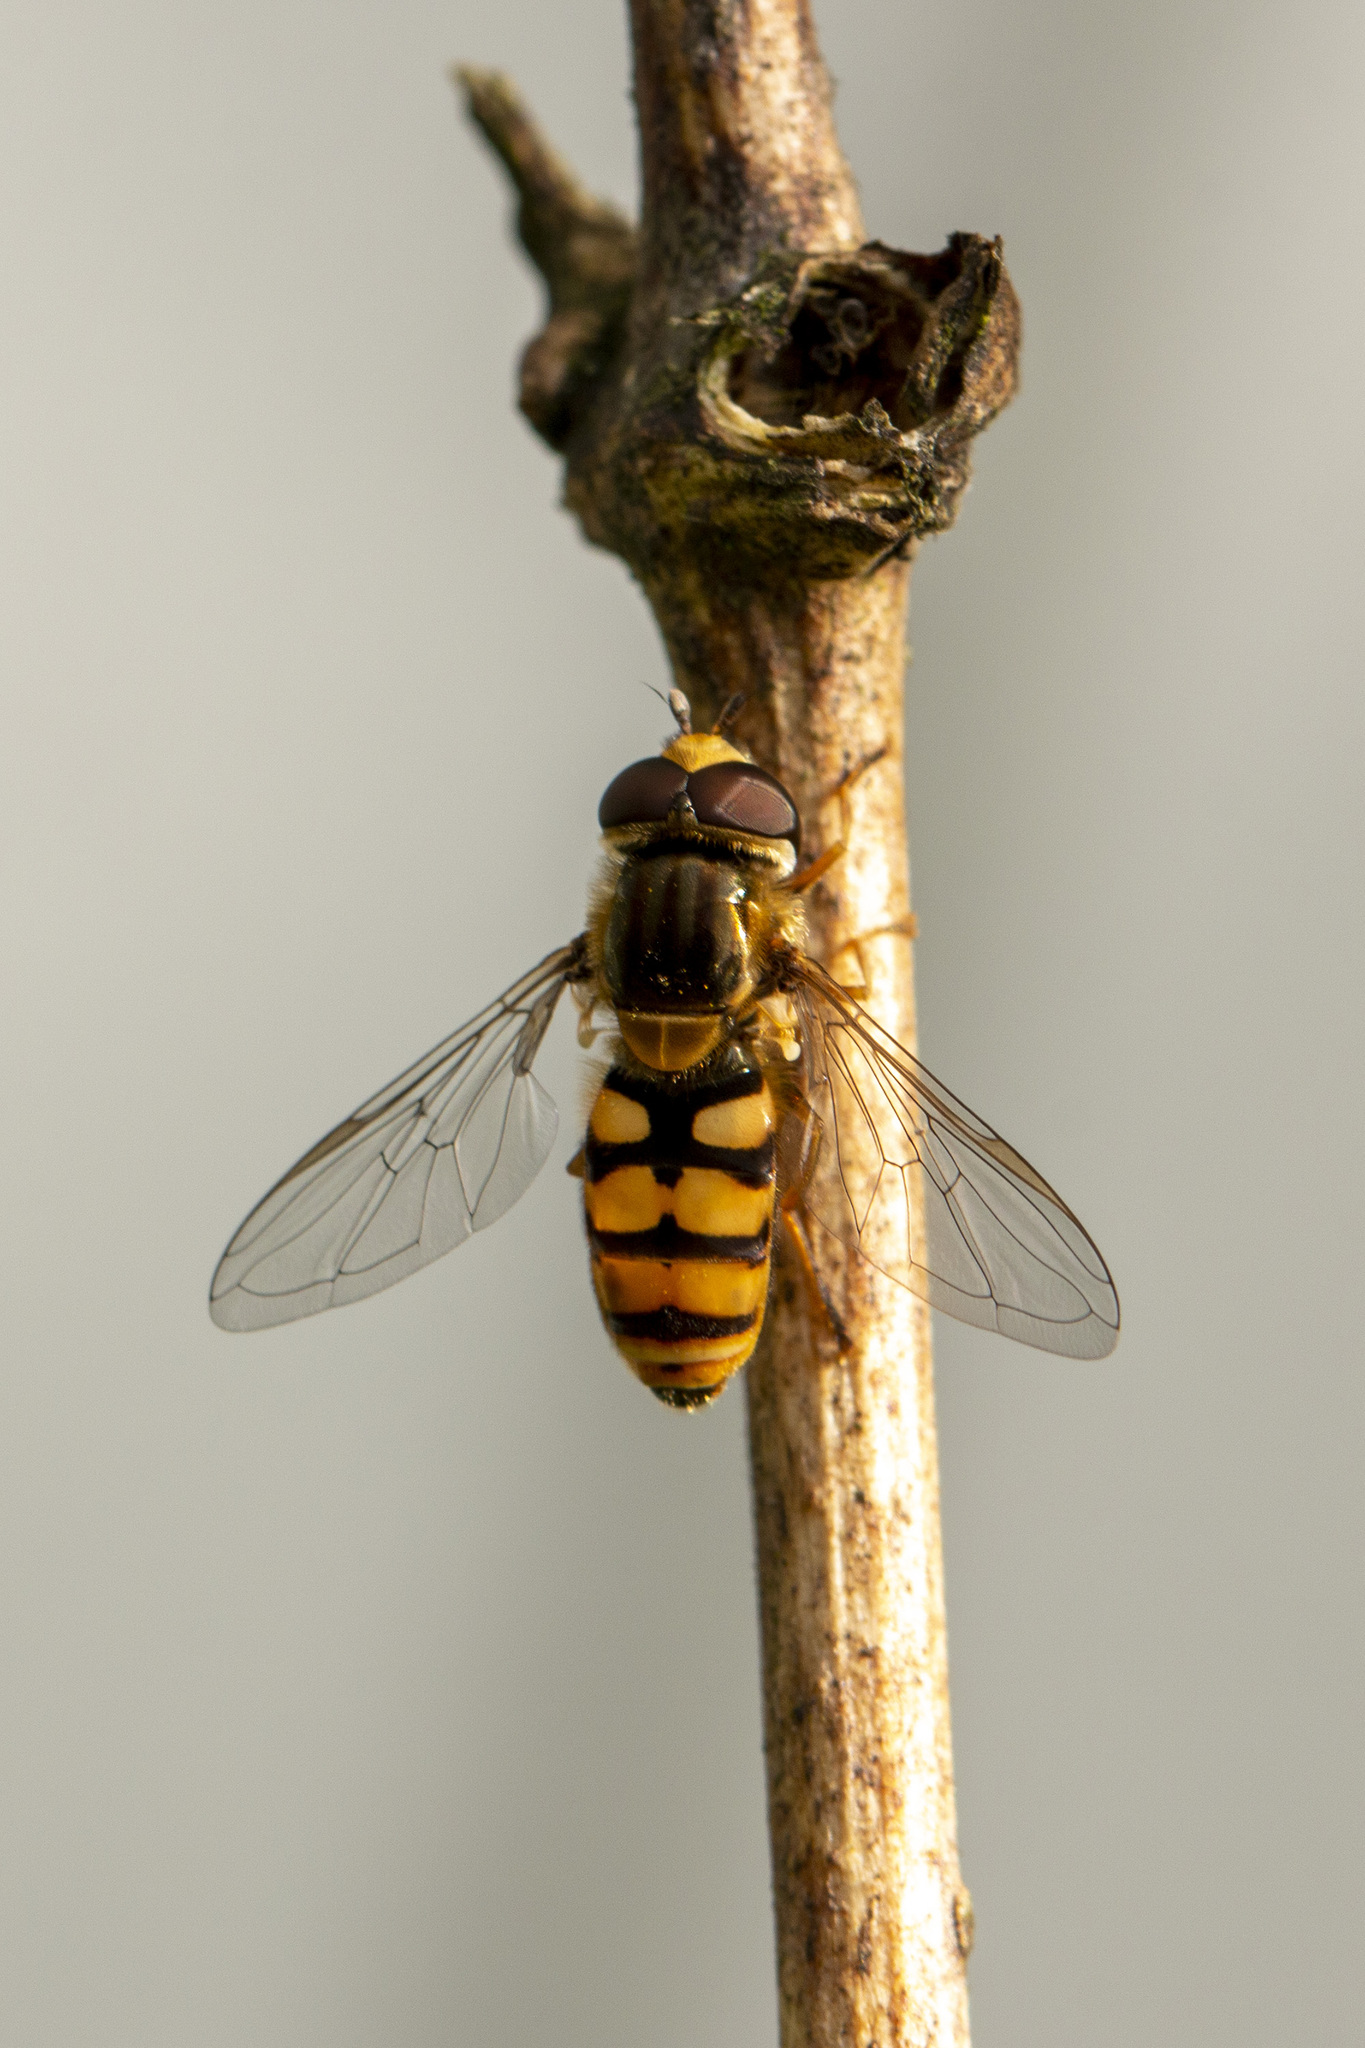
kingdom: Animalia
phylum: Arthropoda
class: Insecta
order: Diptera
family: Syrphidae
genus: Eupeodes
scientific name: Eupeodes corollae
